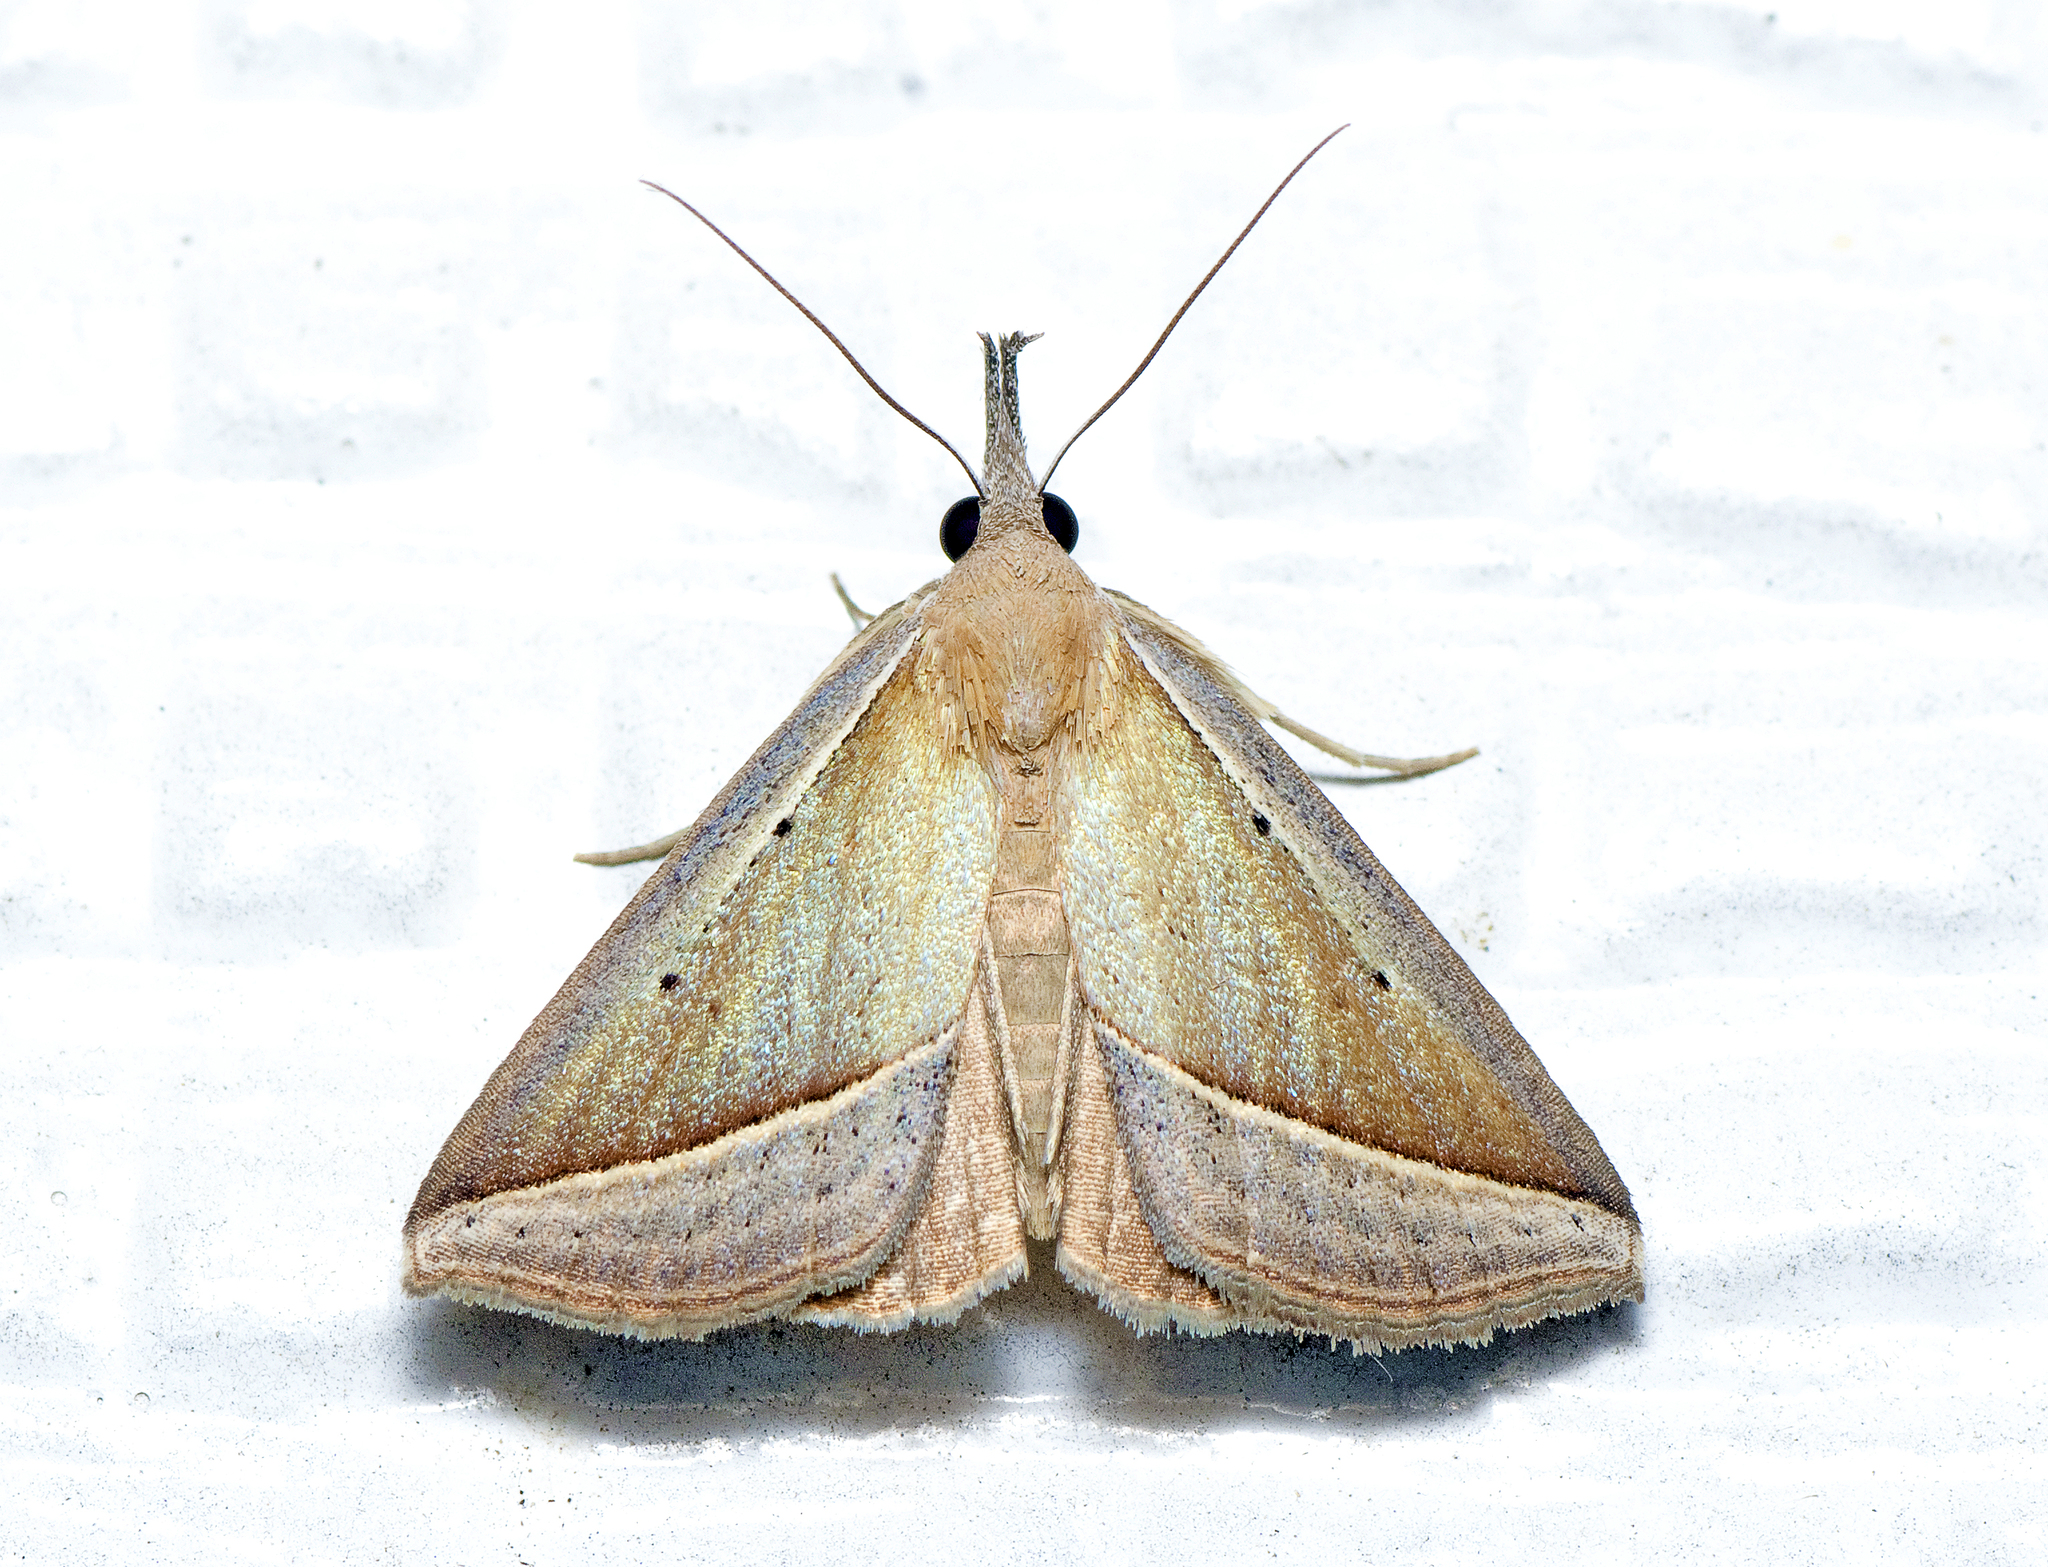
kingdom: Animalia
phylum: Arthropoda
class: Insecta
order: Lepidoptera
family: Erebidae
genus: Hypena
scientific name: Hypena conscitalis
